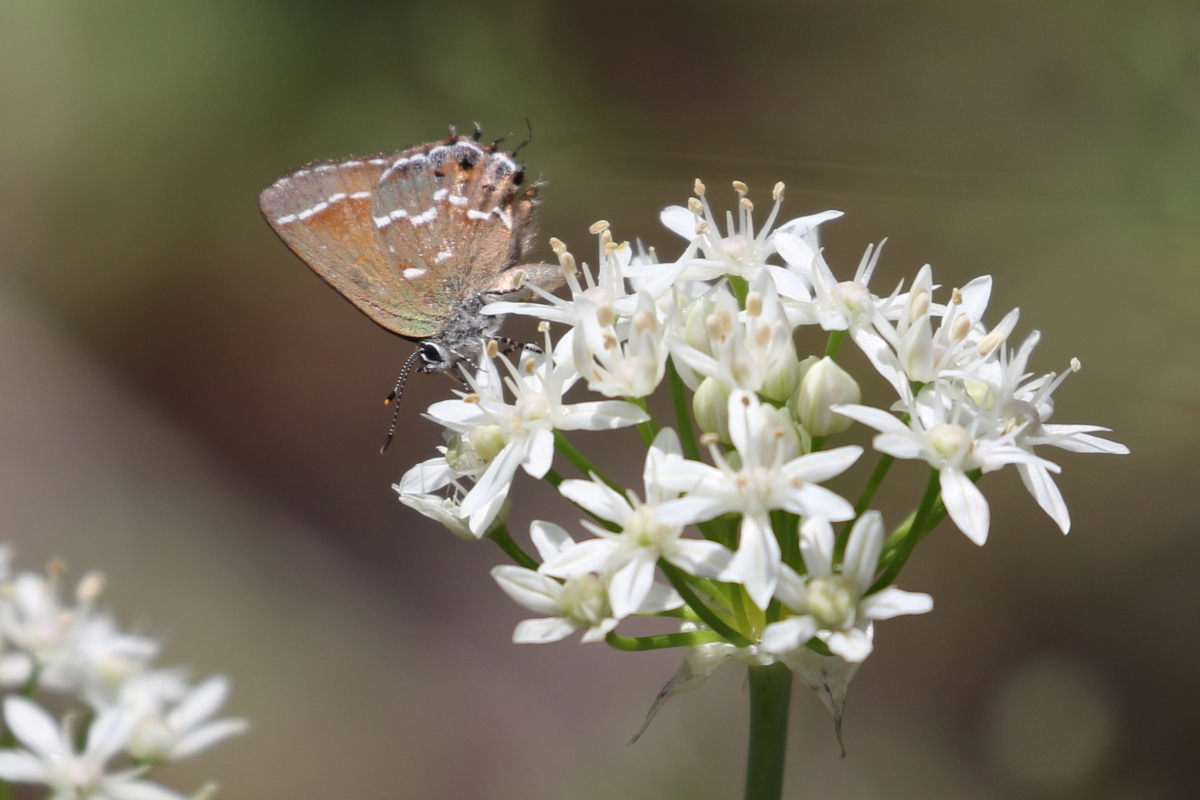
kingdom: Animalia
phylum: Arthropoda
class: Insecta
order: Lepidoptera
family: Lycaenidae
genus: Mitoura
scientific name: Mitoura gryneus
